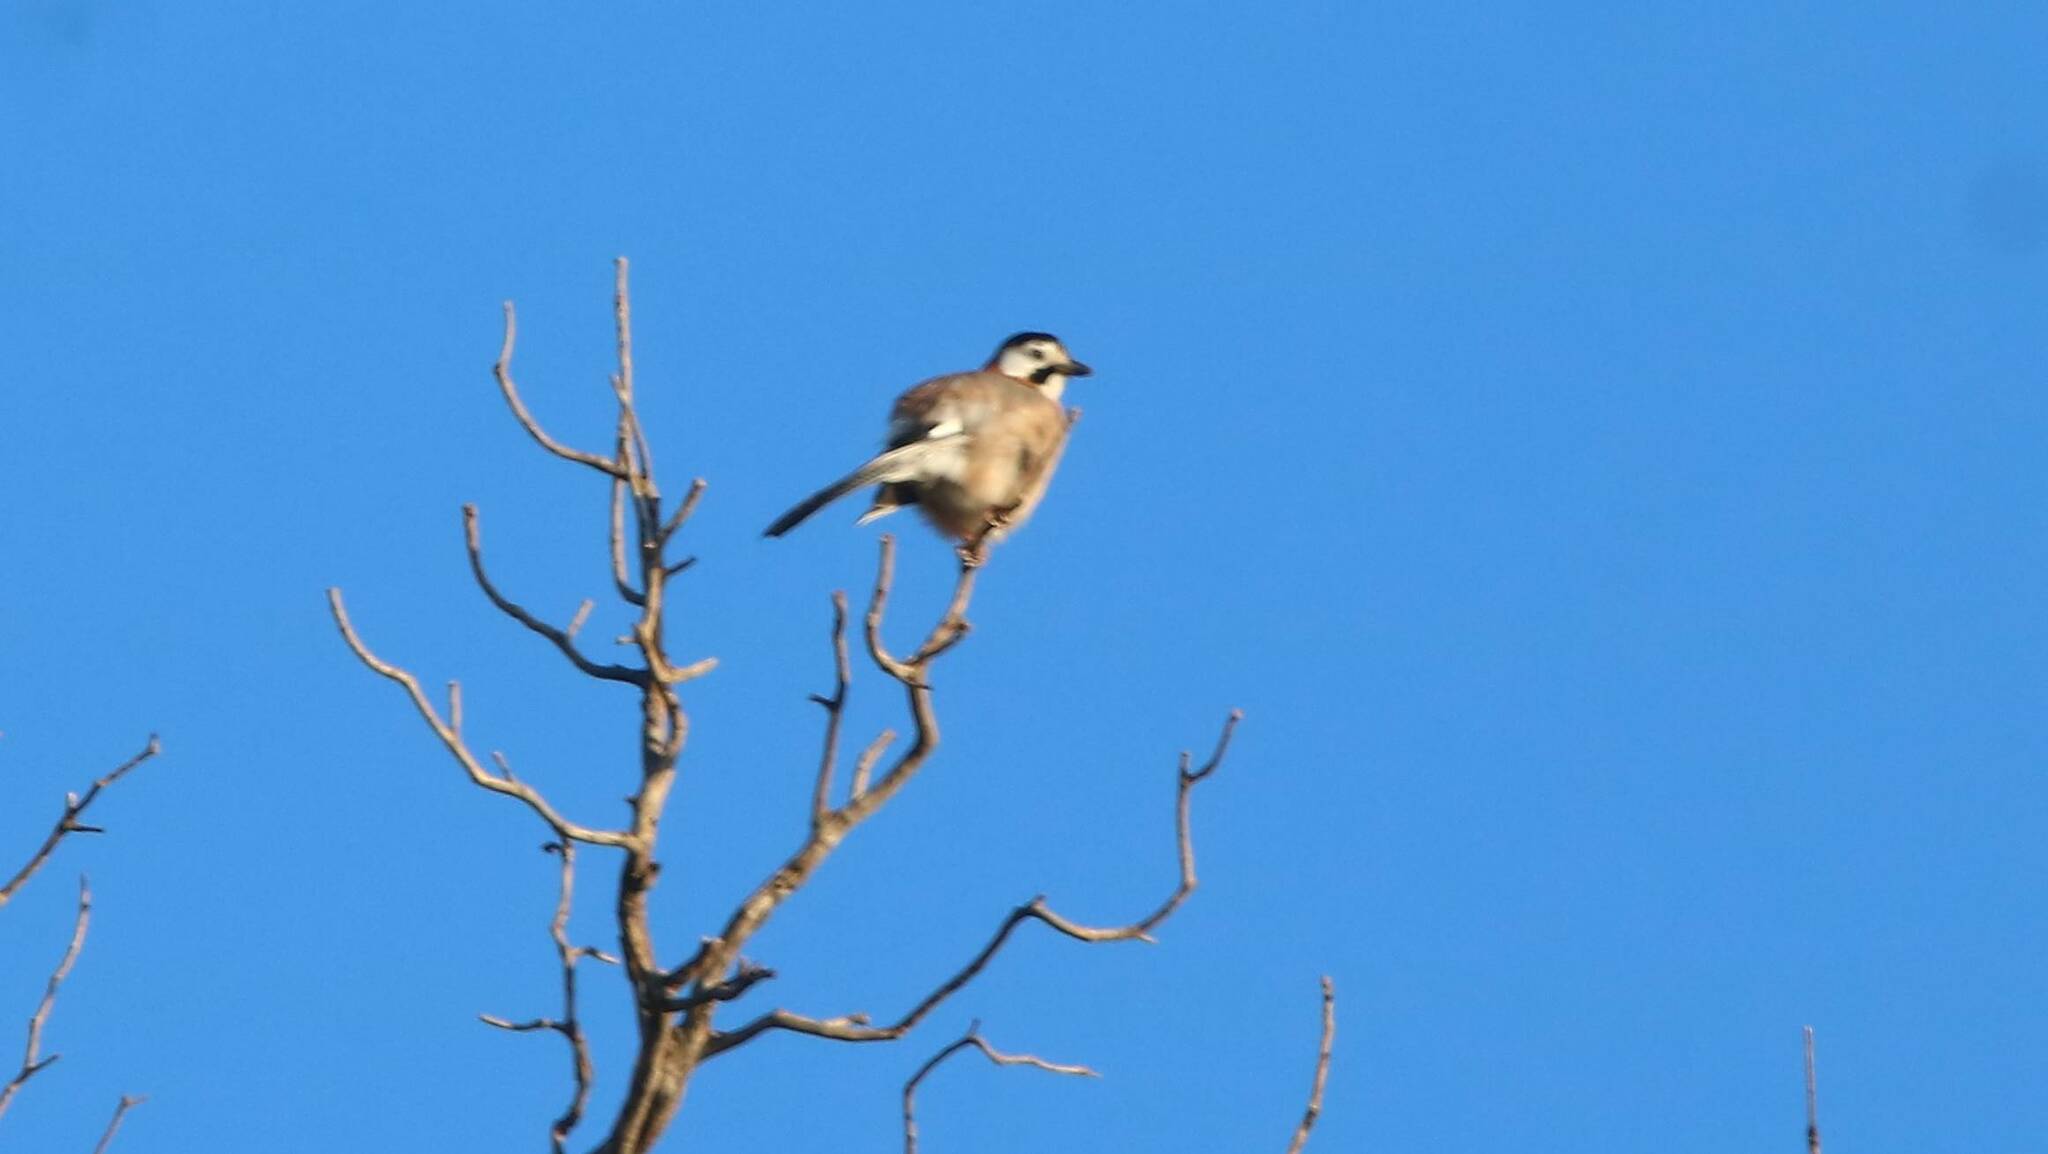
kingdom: Animalia
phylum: Chordata
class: Aves
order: Passeriformes
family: Corvidae
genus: Garrulus
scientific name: Garrulus glandarius
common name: Eurasian jay
